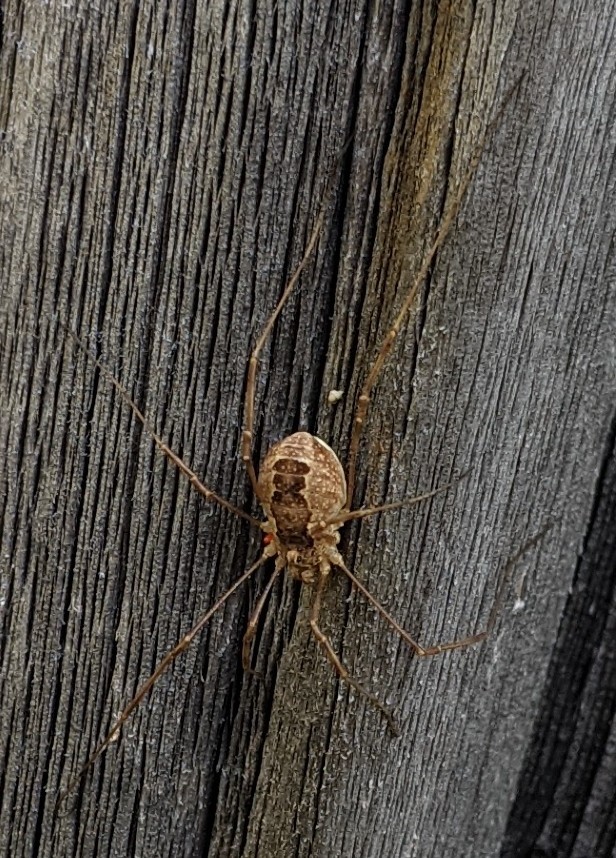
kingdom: Animalia
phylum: Arthropoda
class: Arachnida
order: Opiliones
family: Phalangiidae
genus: Rilaena
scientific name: Rilaena triangularis
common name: Spring harvestman
